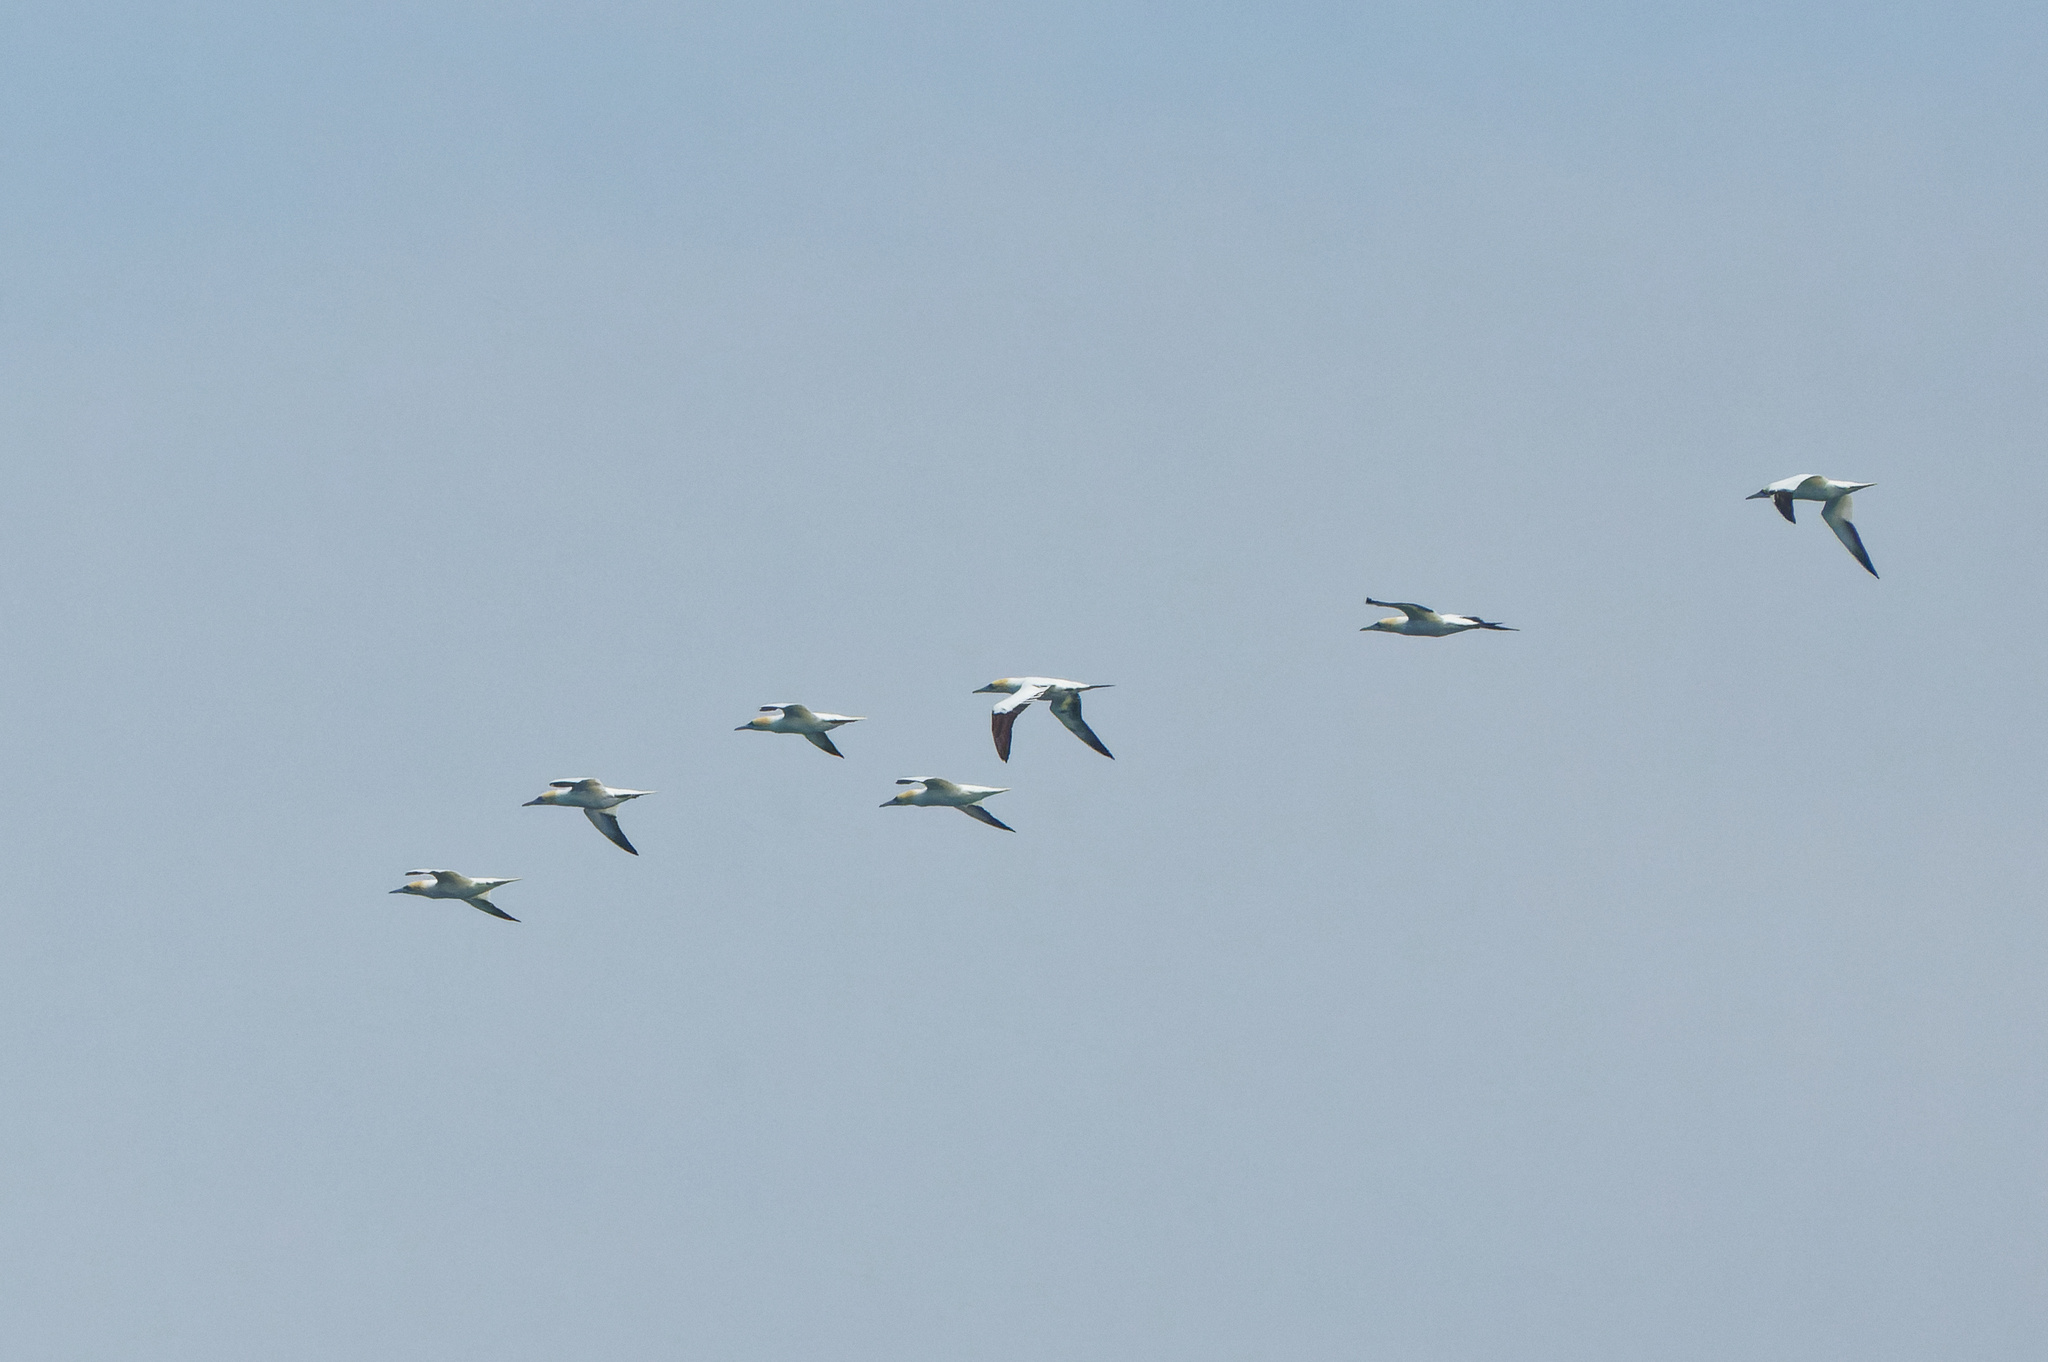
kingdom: Animalia
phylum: Chordata
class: Aves
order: Suliformes
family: Sulidae
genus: Morus
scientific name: Morus bassanus
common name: Northern gannet
